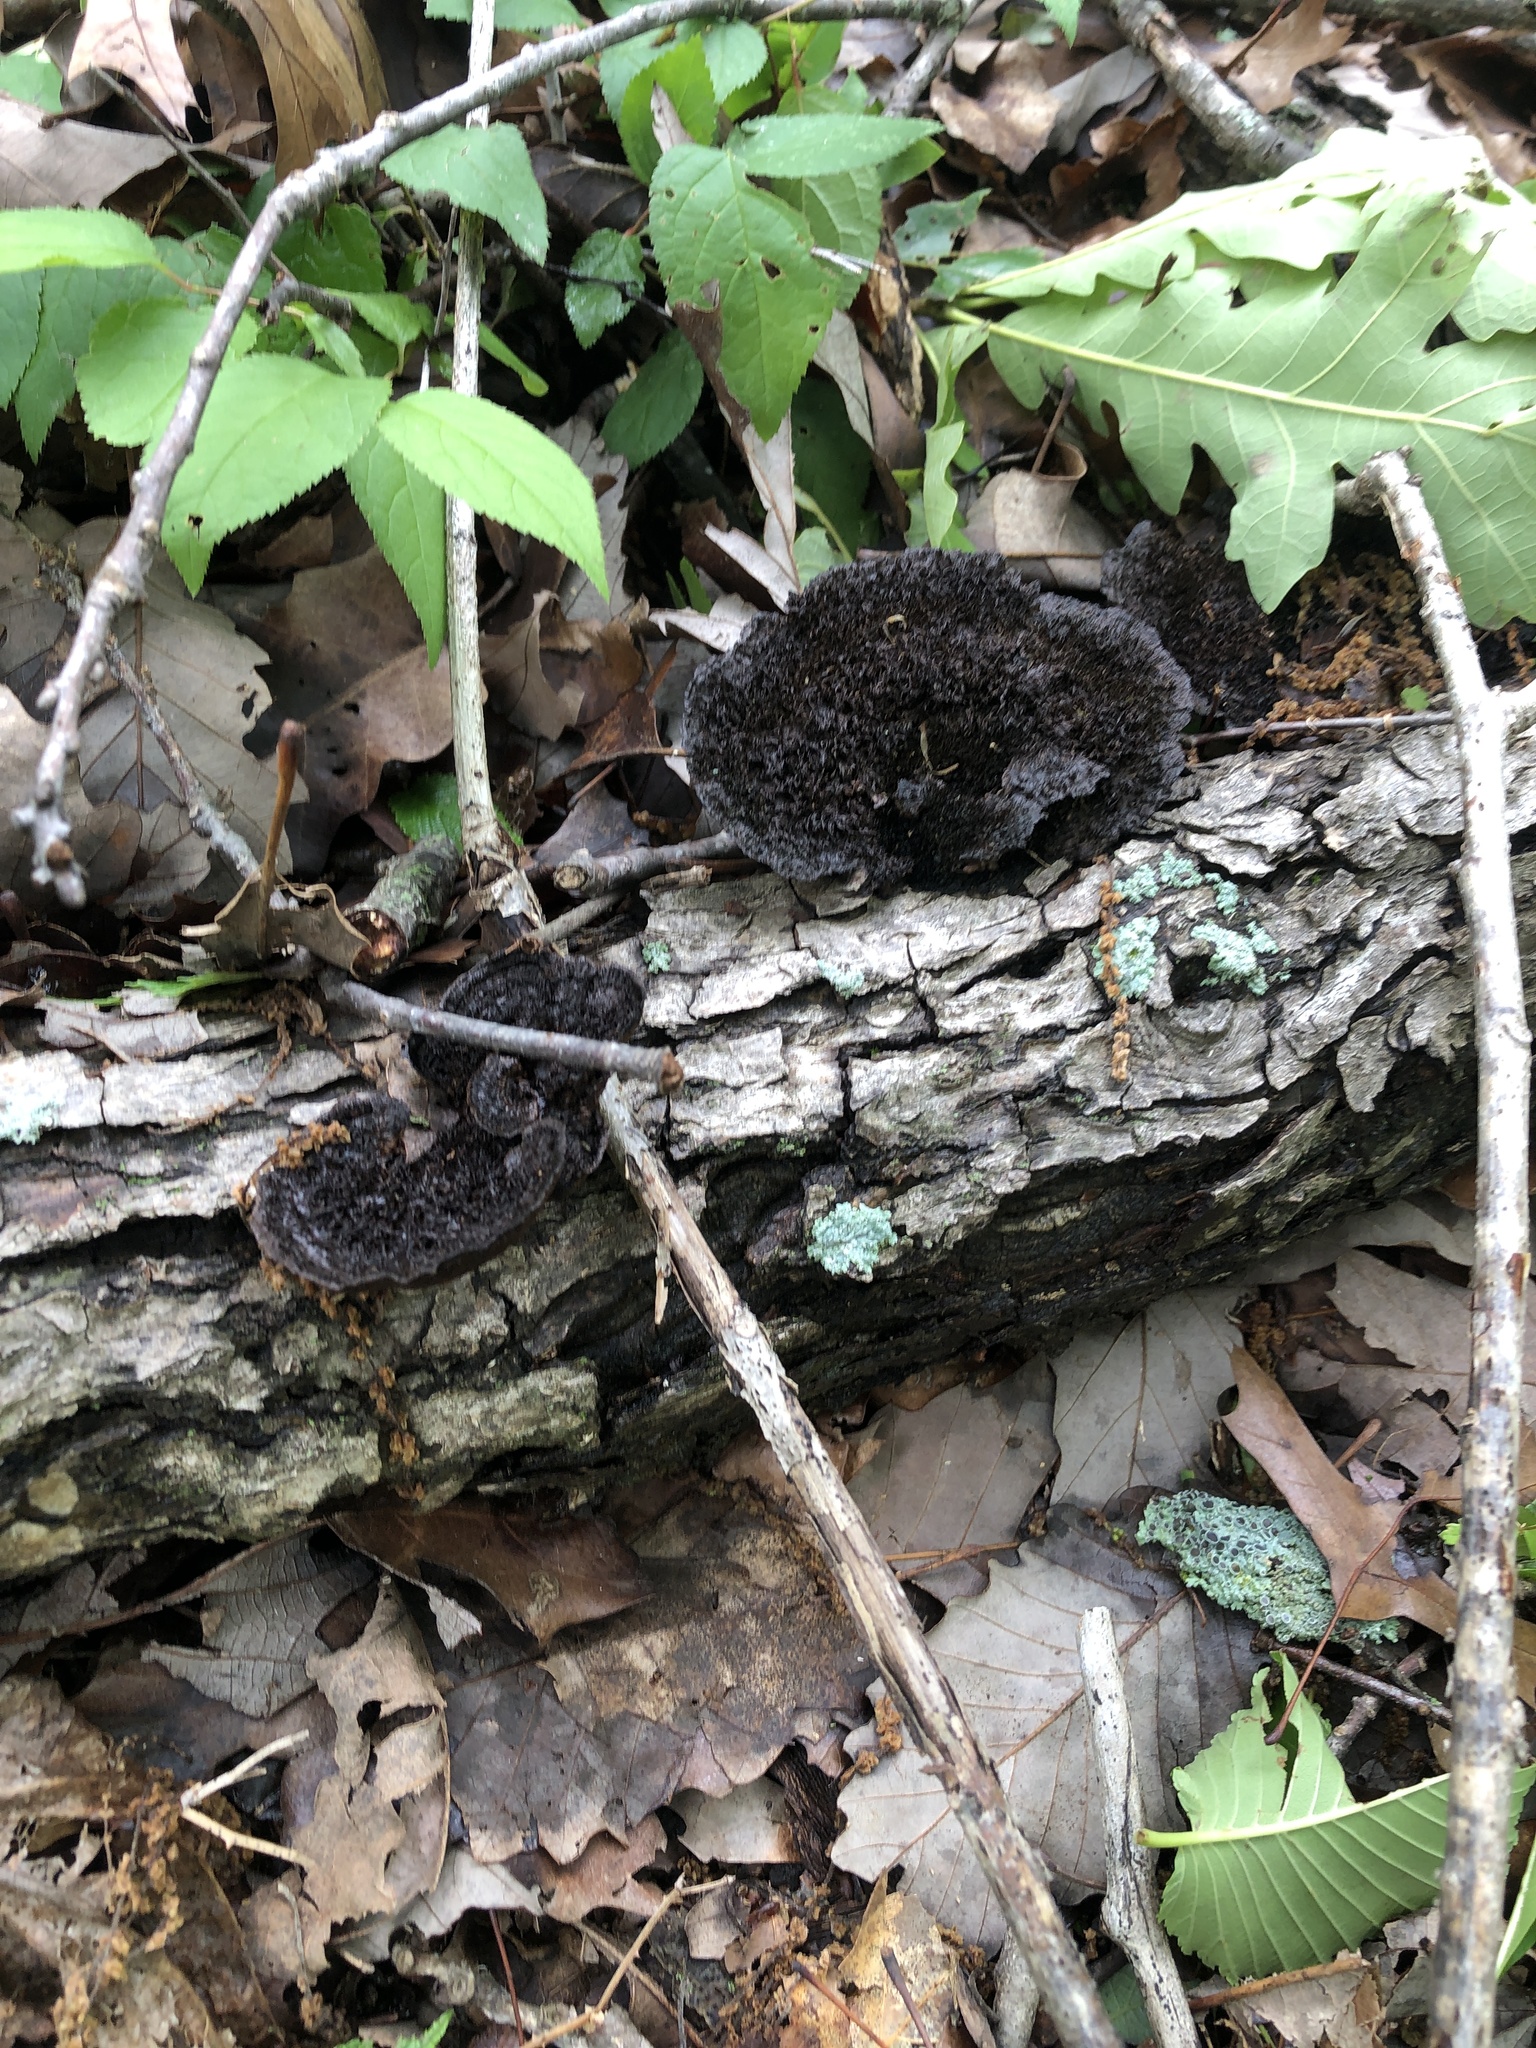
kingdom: Fungi
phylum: Basidiomycota
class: Agaricomycetes
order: Polyporales
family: Cerrenaceae
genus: Cerrena
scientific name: Cerrena hydnoides
